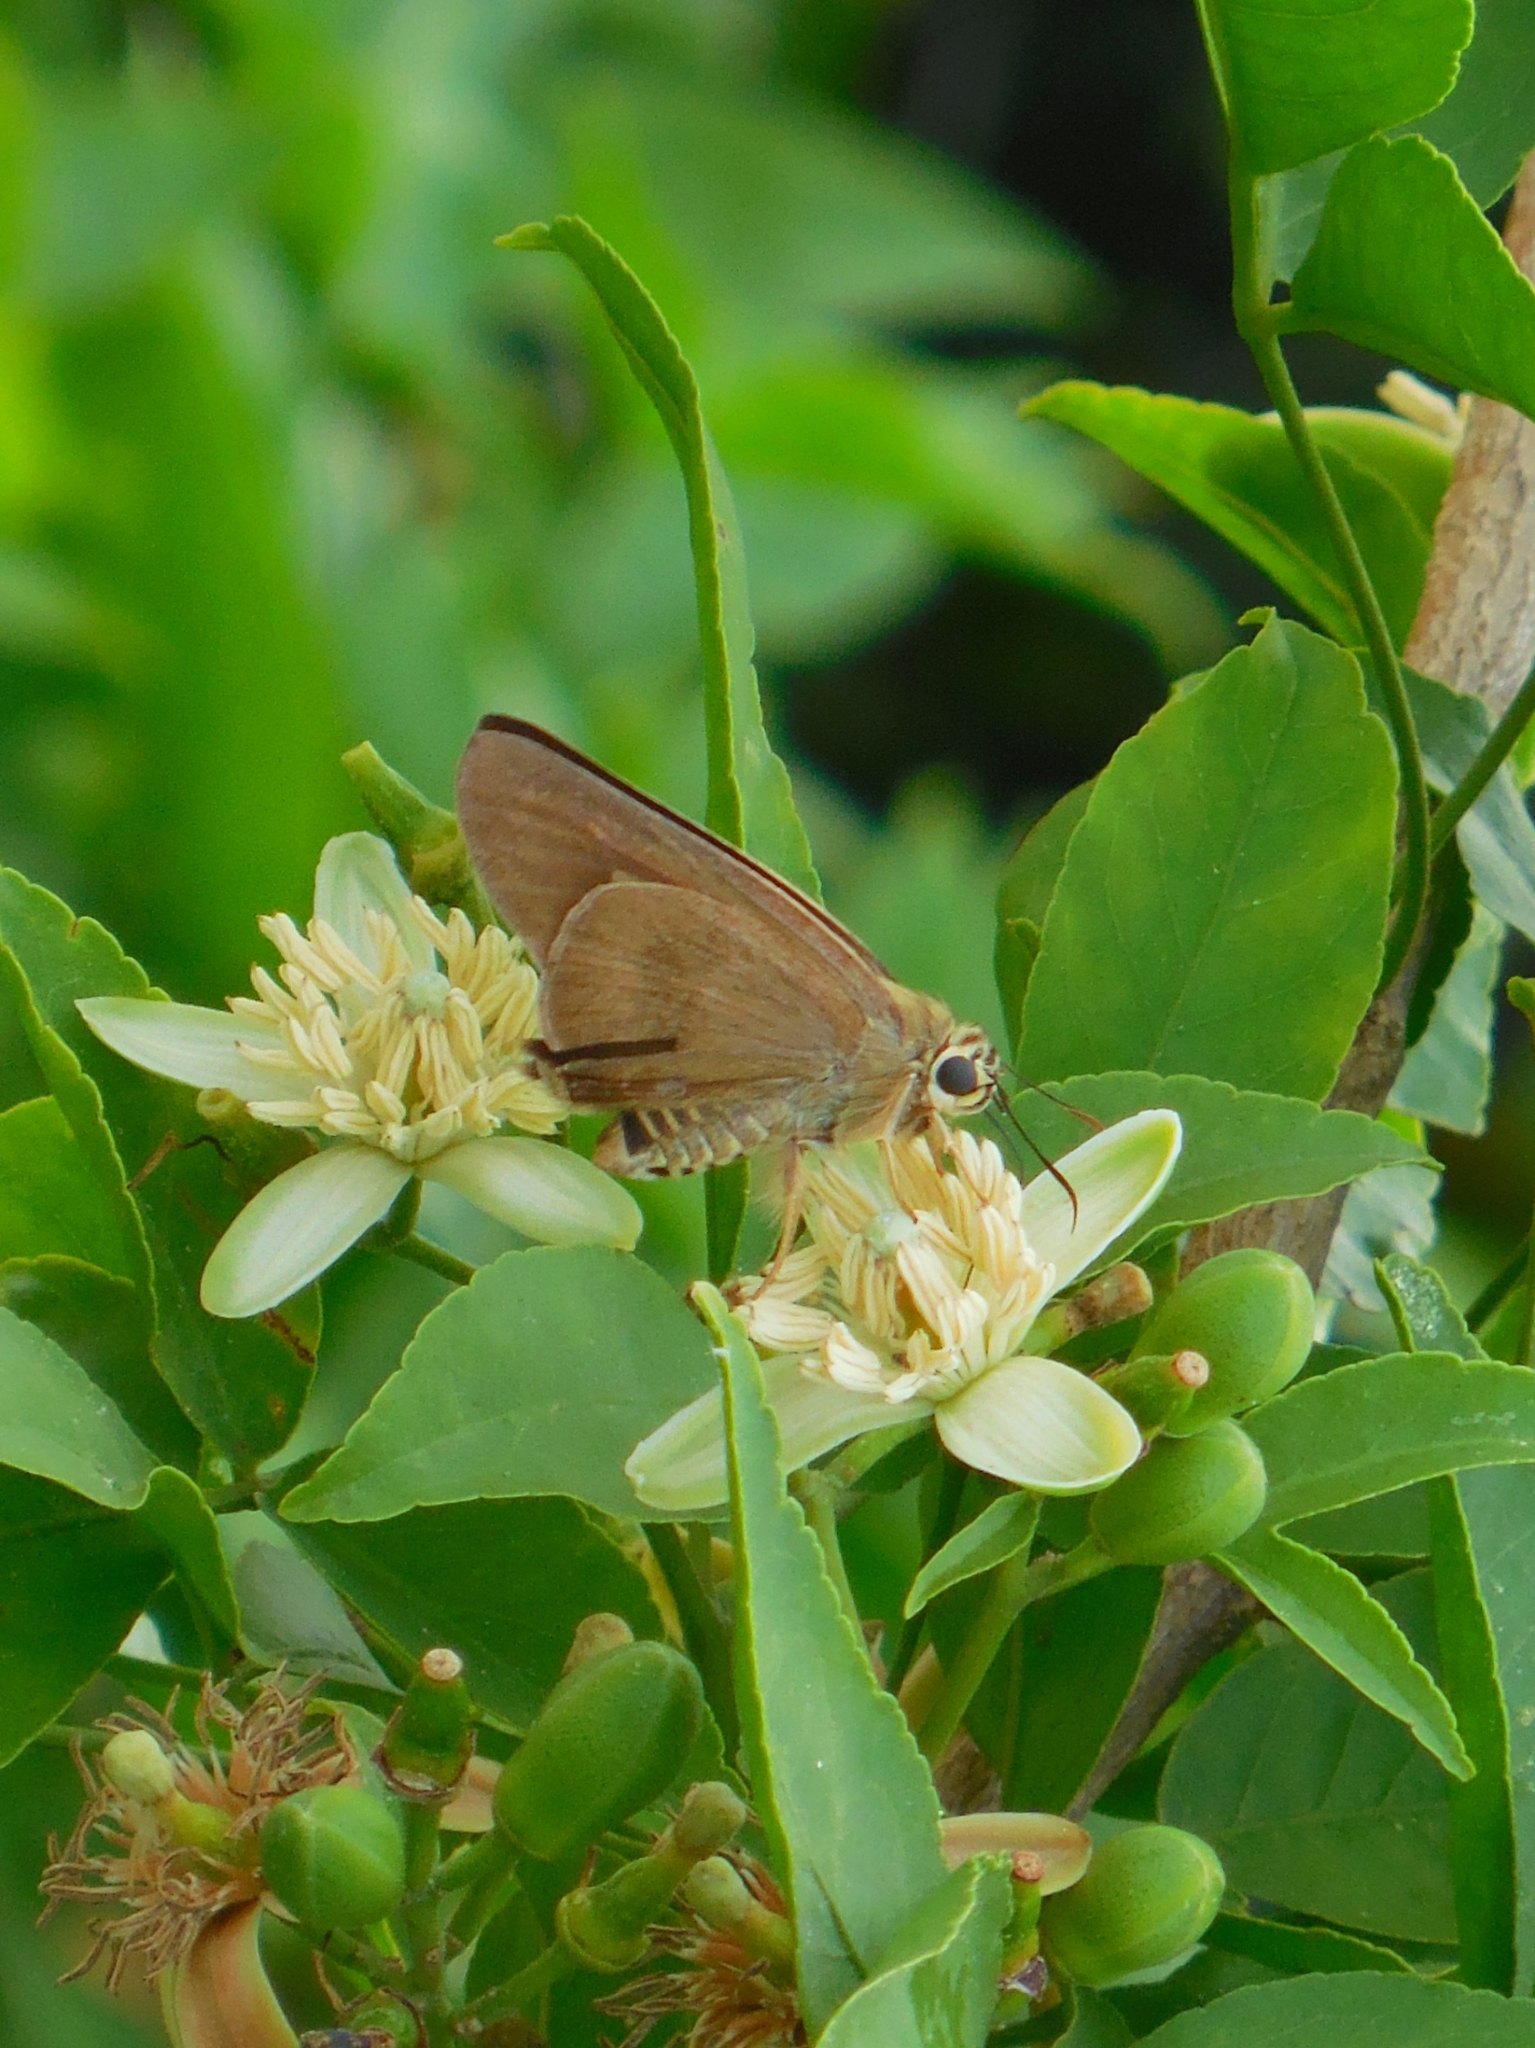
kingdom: Animalia
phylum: Arthropoda
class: Insecta
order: Lepidoptera
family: Hesperiidae
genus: Badamia
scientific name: Badamia exclamationis
